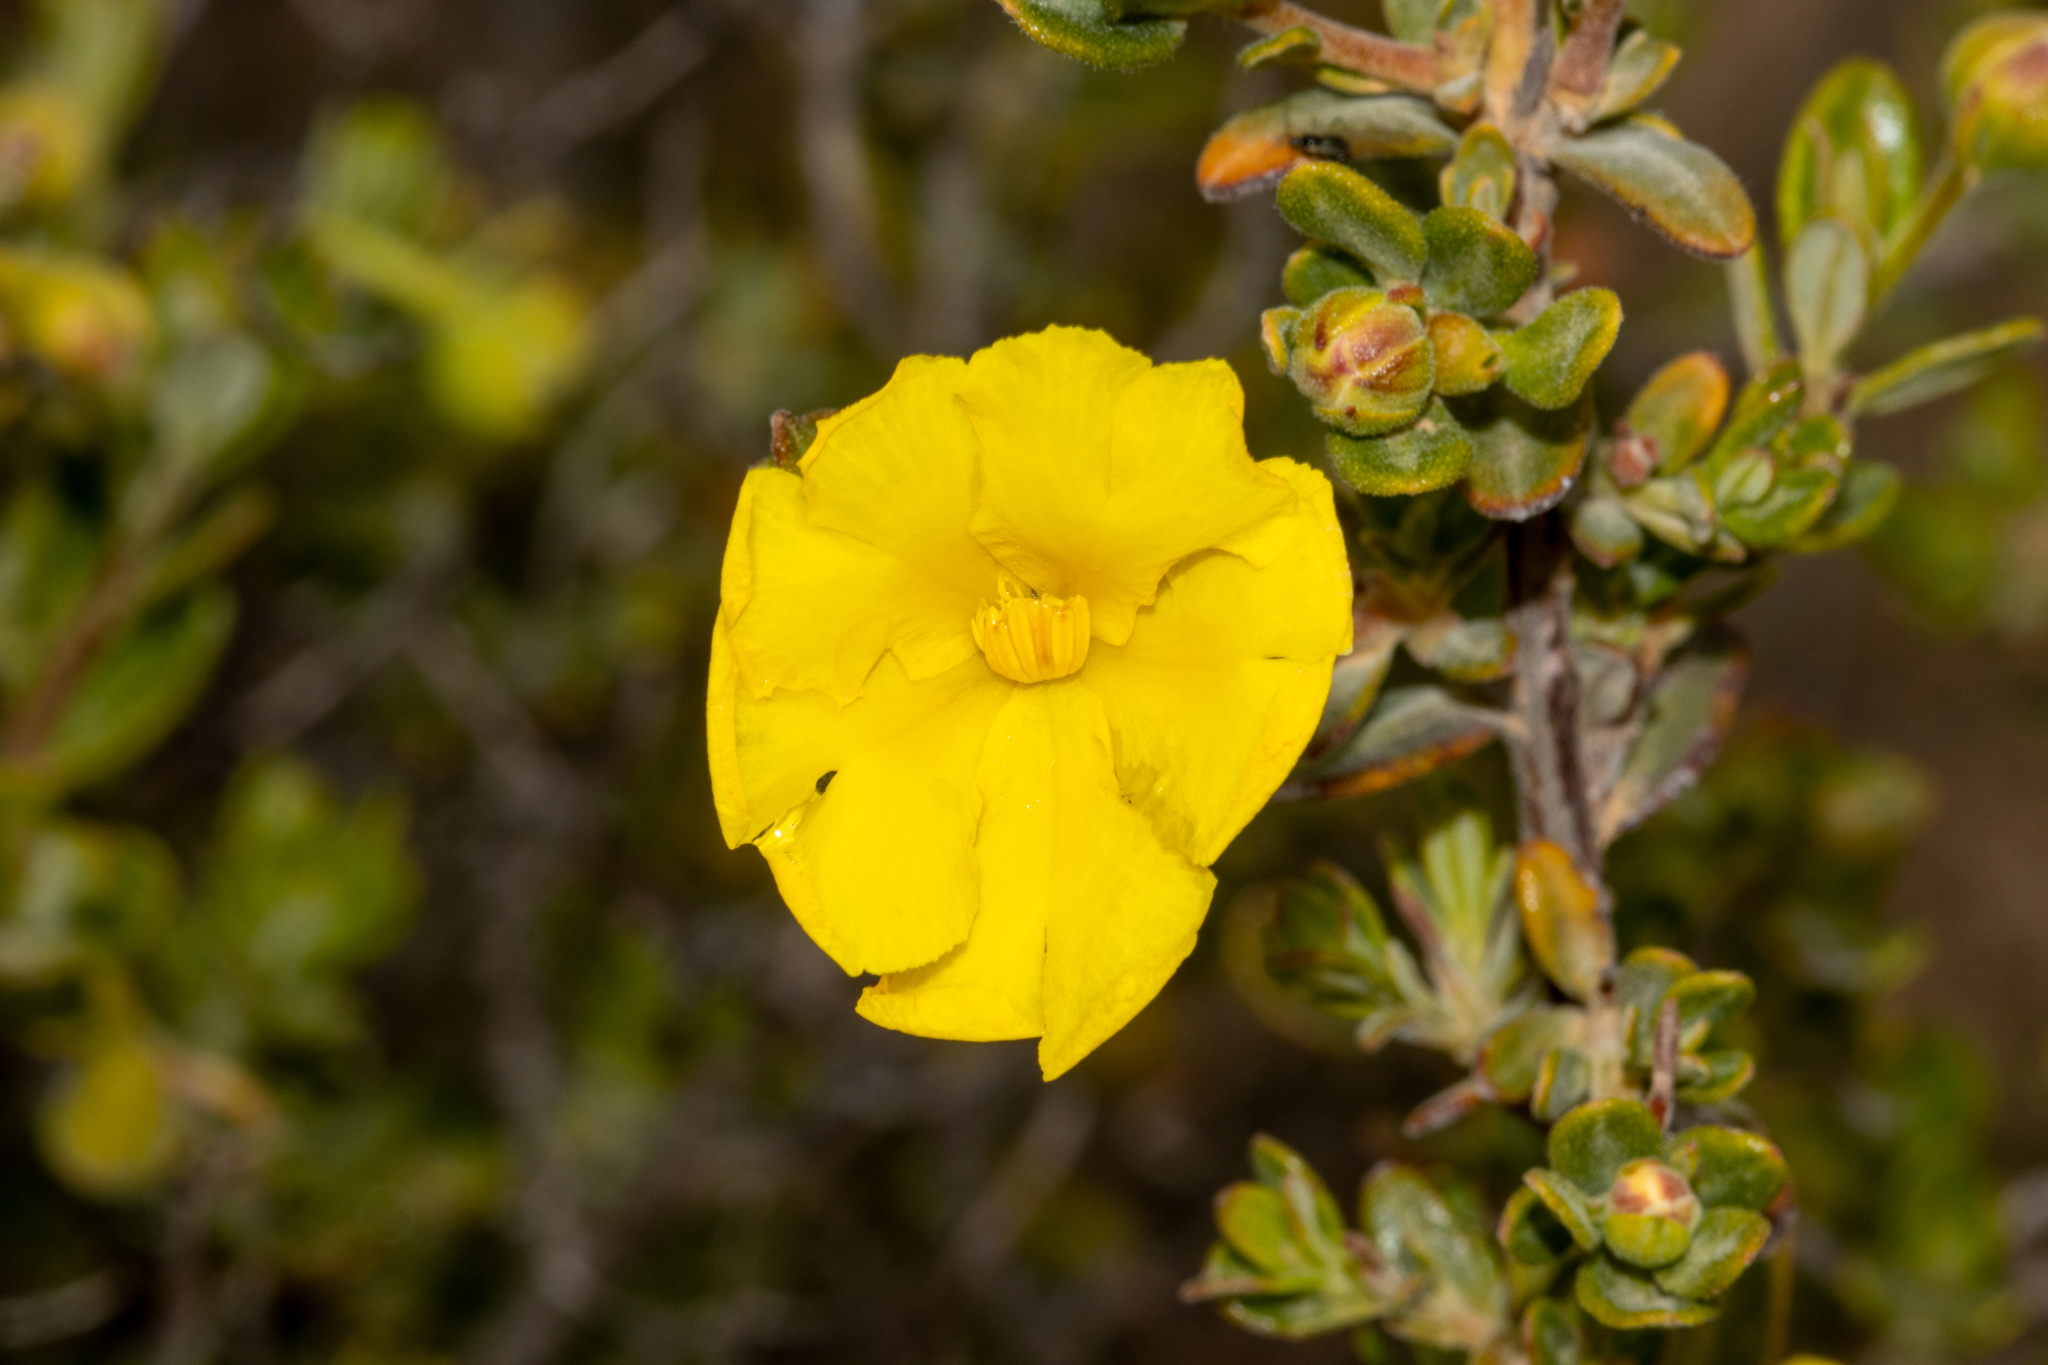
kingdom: Plantae
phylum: Tracheophyta
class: Magnoliopsida
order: Dilleniales
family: Dilleniaceae
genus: Hibbertia
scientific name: Hibbertia hypericoides
